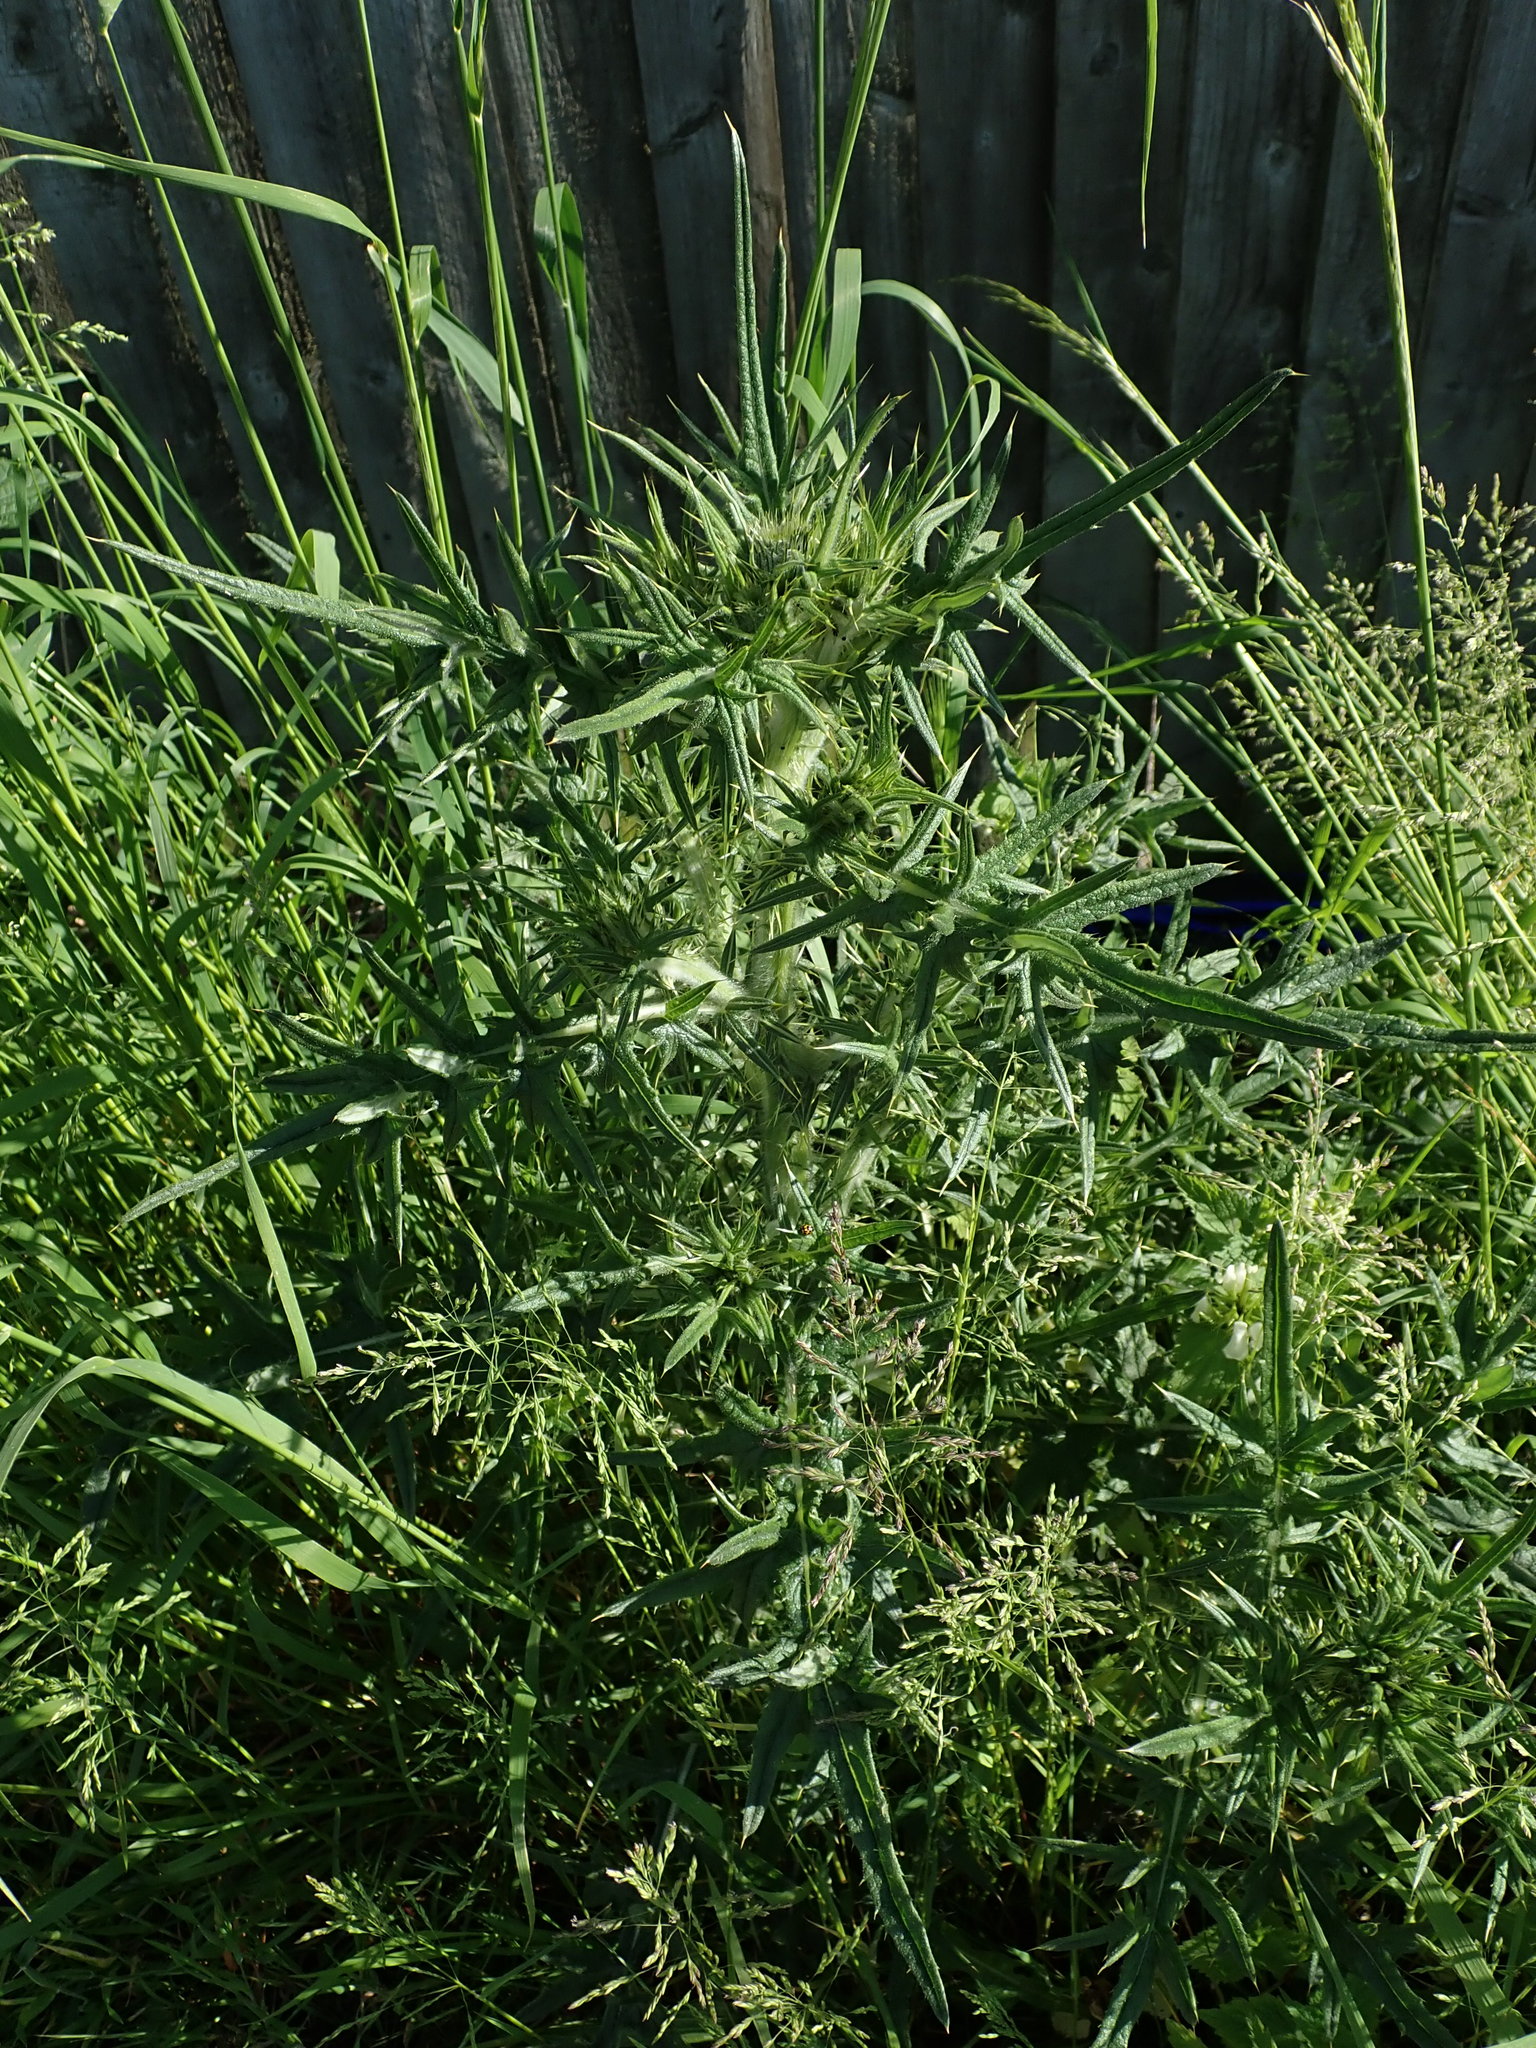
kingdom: Plantae
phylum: Tracheophyta
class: Magnoliopsida
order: Asterales
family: Asteraceae
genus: Cirsium
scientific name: Cirsium vulgare
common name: Bull thistle
